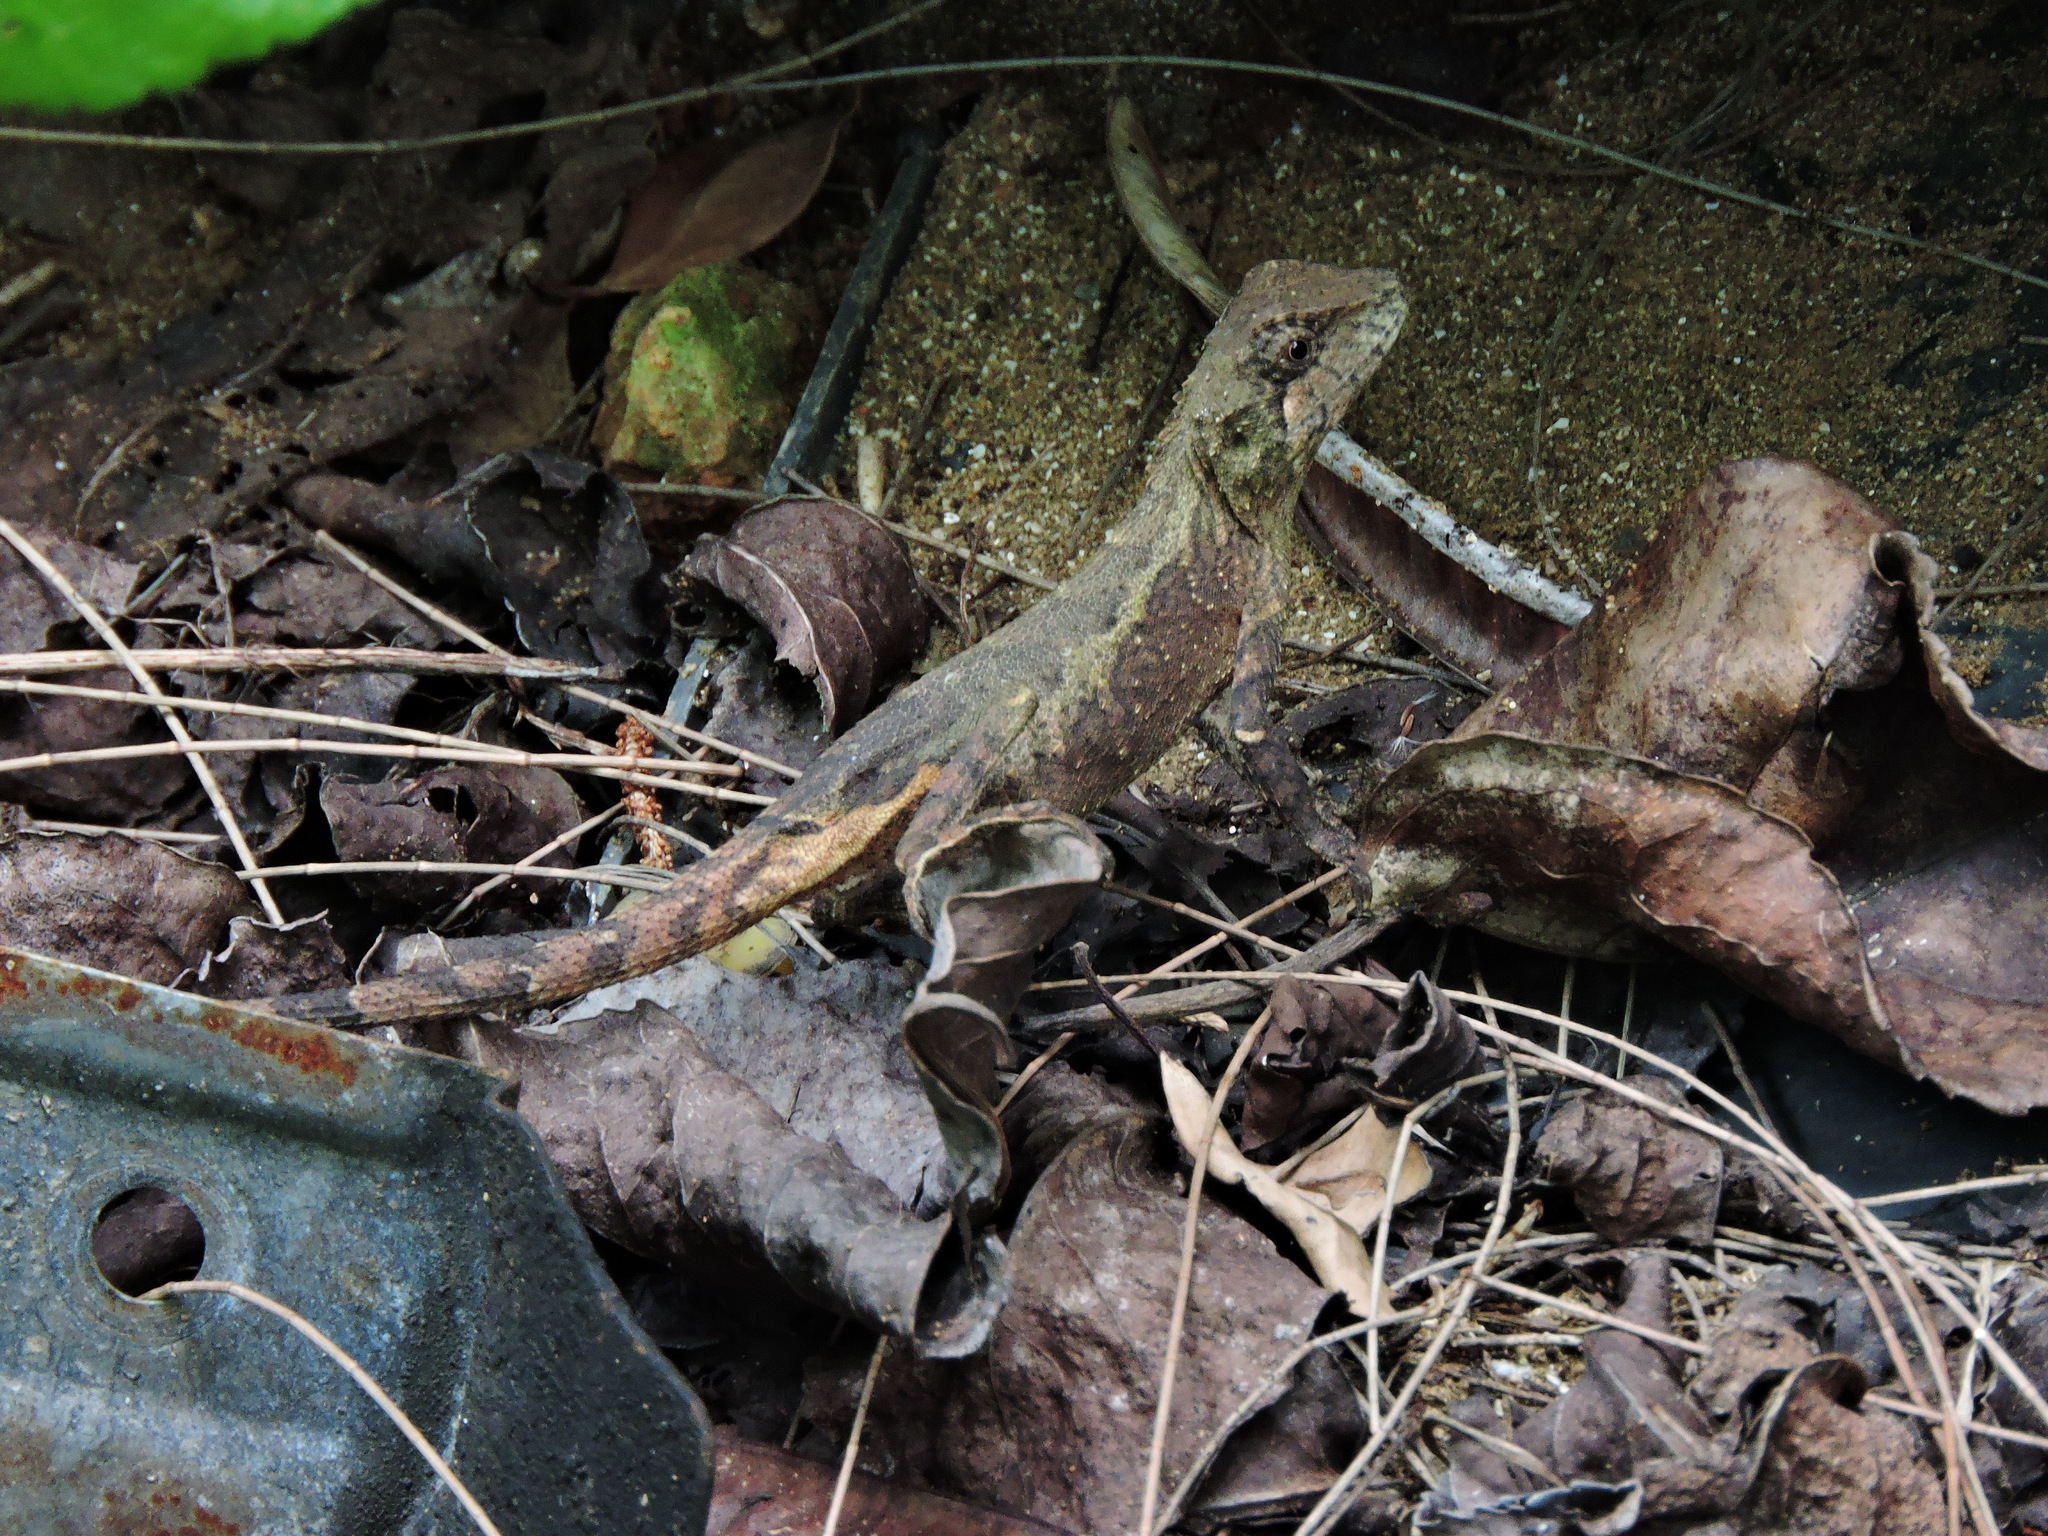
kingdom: Animalia
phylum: Chordata
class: Squamata
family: Agamidae
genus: Diploderma
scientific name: Diploderma swinhonis
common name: Taiwan japalure
